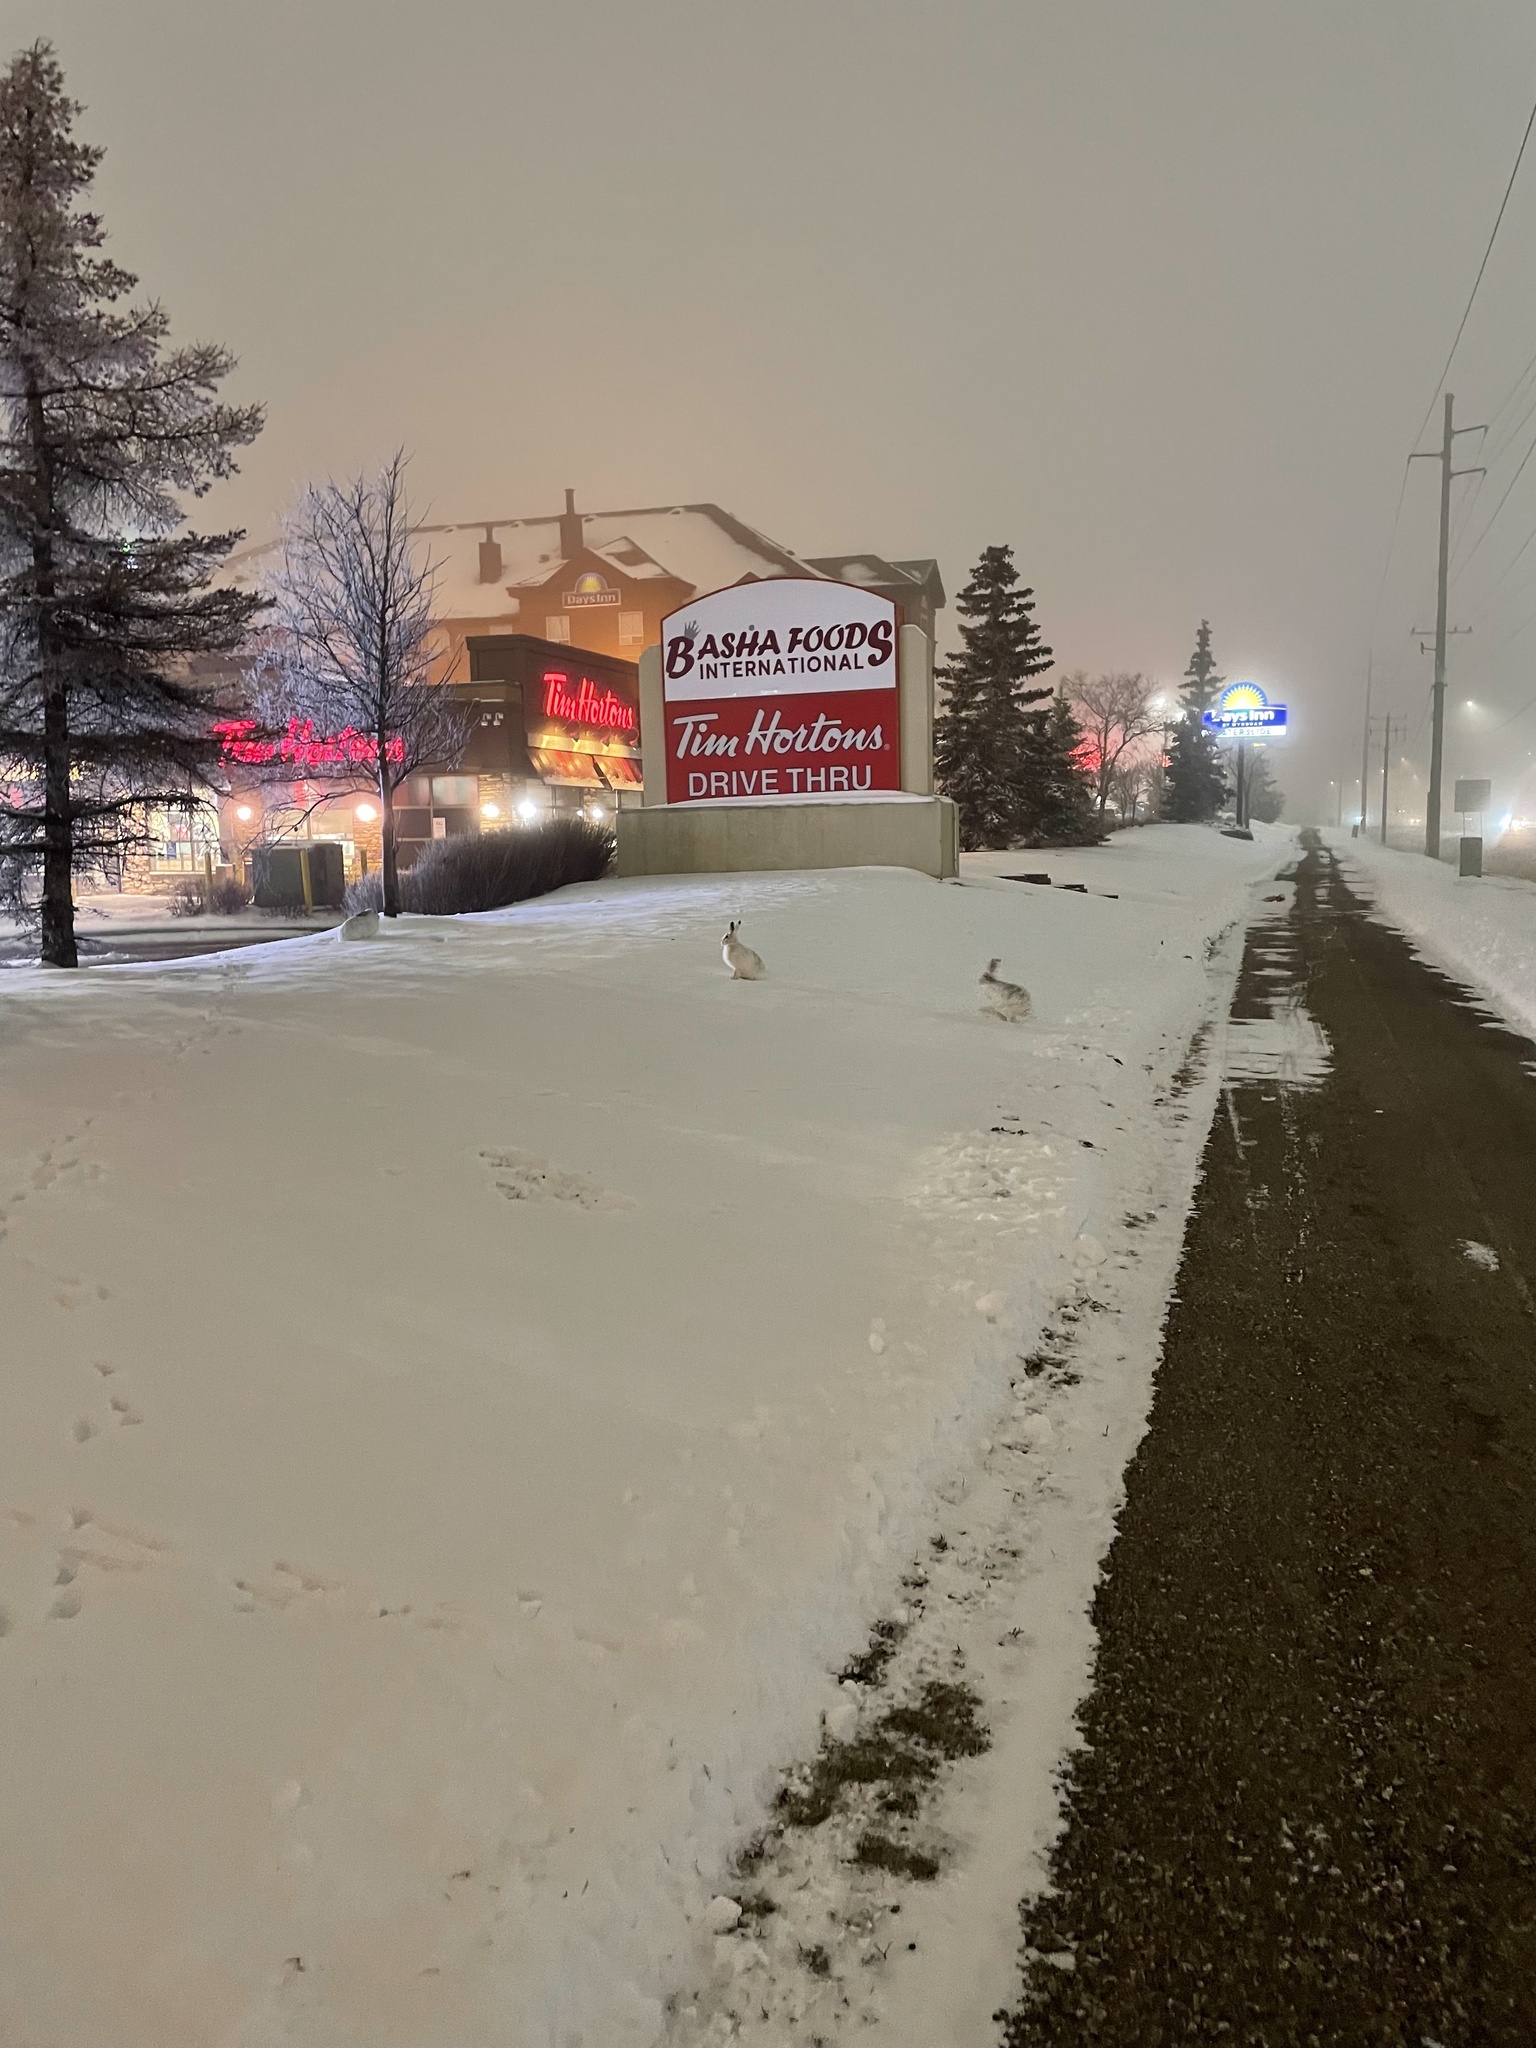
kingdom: Animalia
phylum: Chordata
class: Mammalia
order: Lagomorpha
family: Leporidae
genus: Lepus
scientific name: Lepus townsendii
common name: White-tailed jackrabbit
